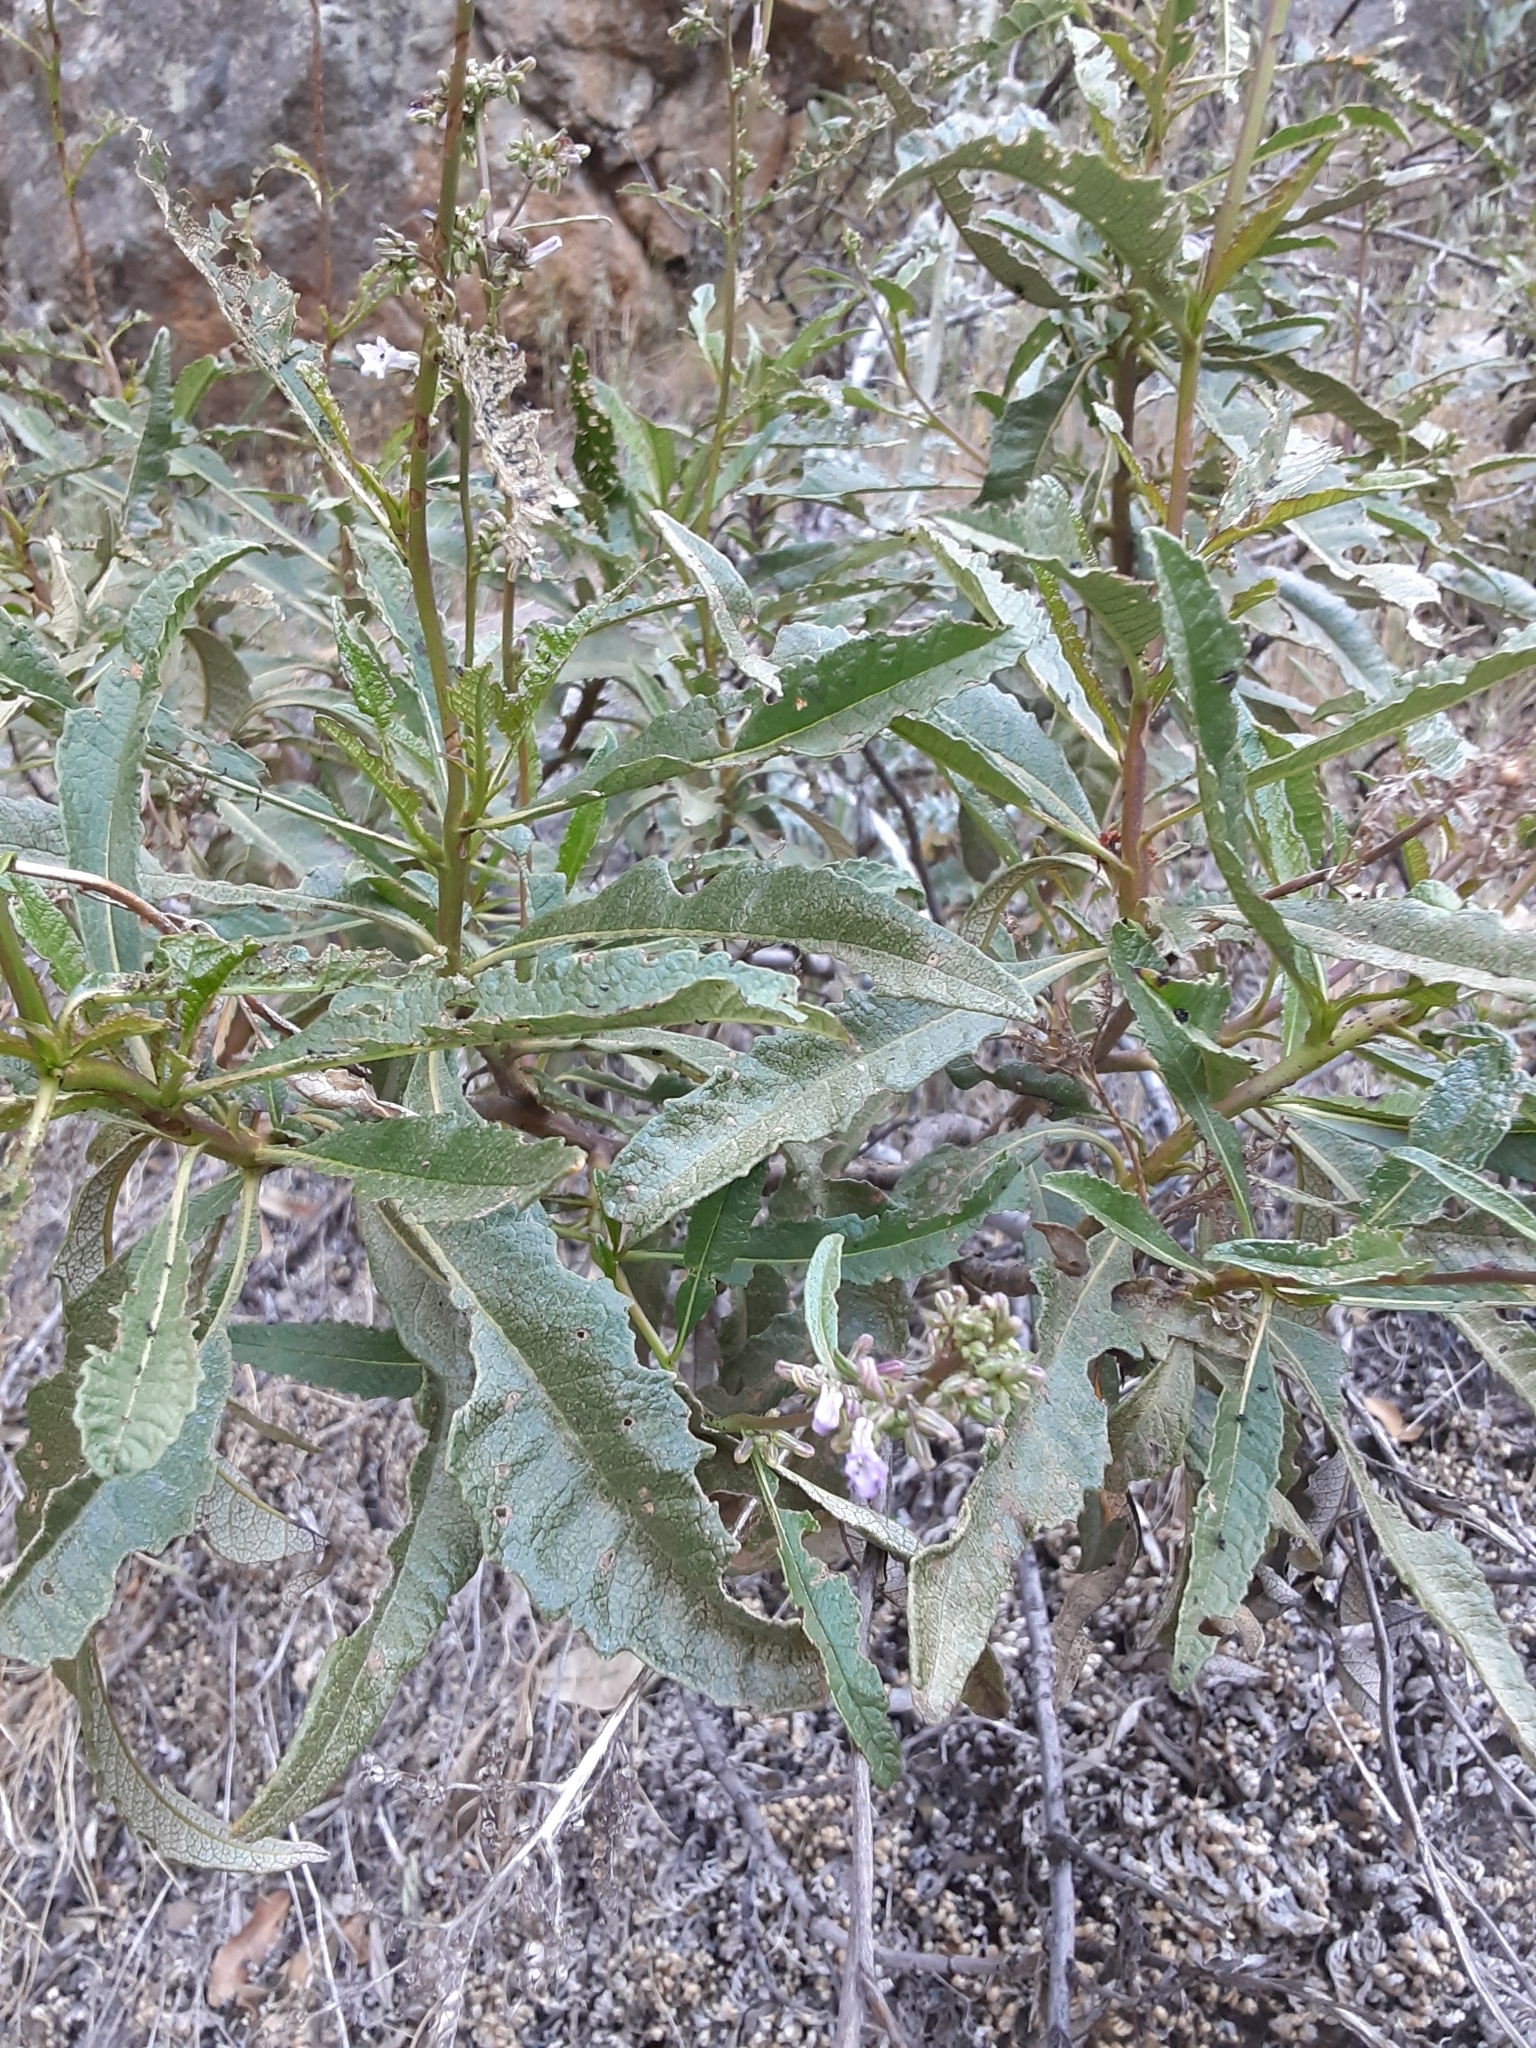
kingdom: Plantae
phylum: Tracheophyta
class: Magnoliopsida
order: Boraginales
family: Namaceae
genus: Eriodictyon
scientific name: Eriodictyon californicum
